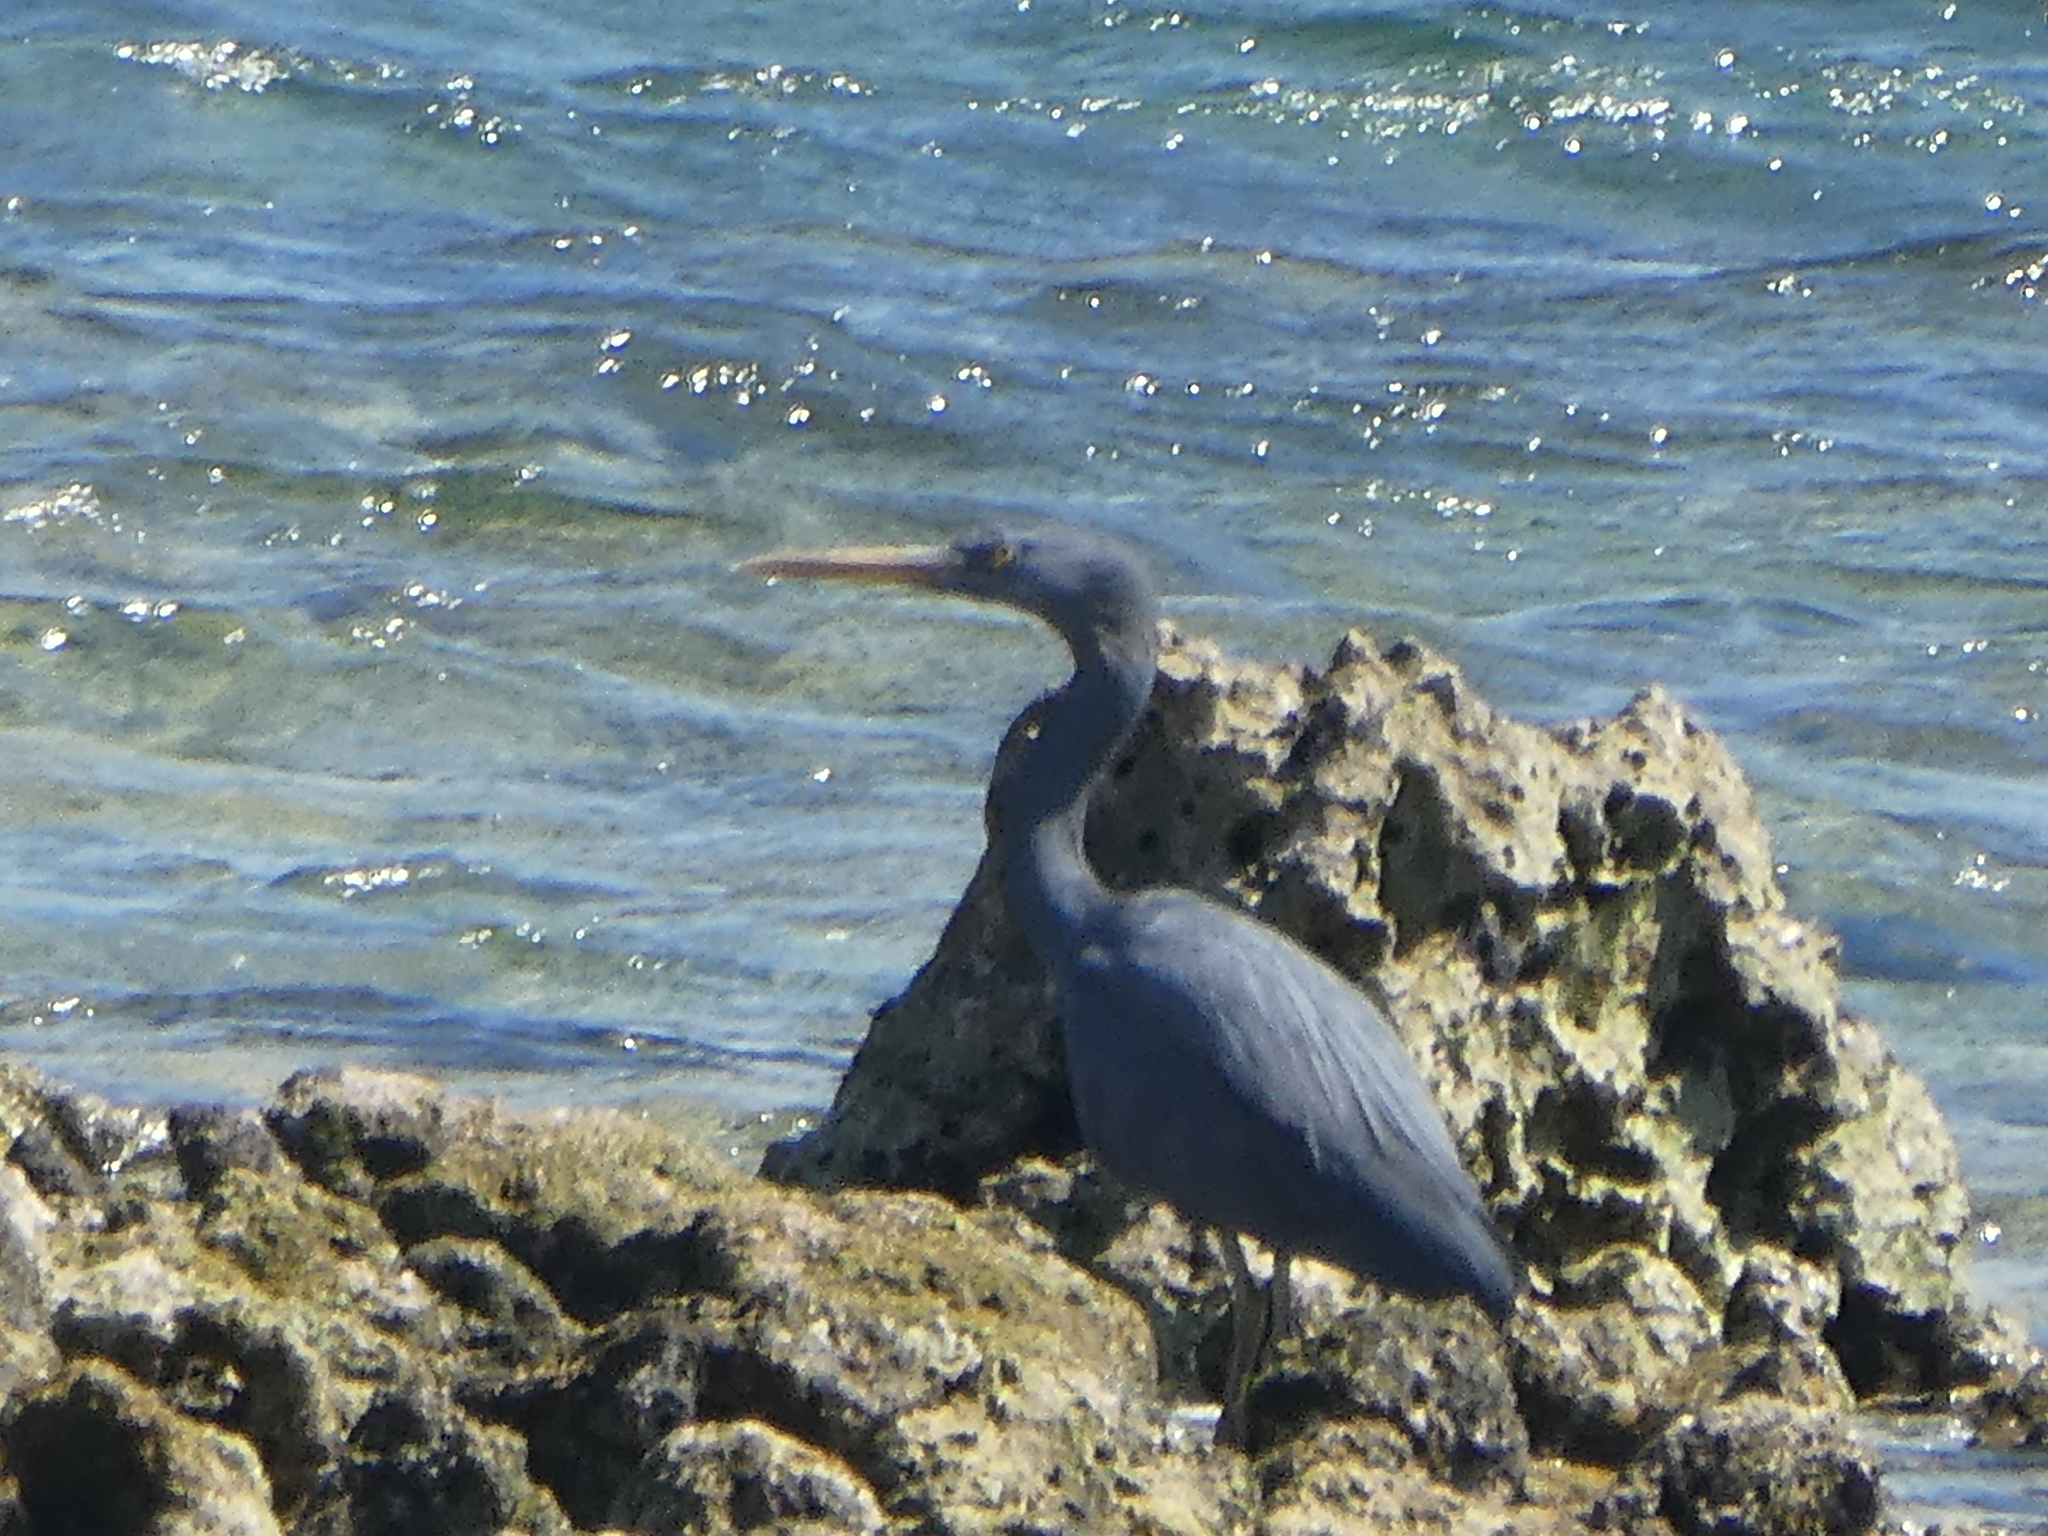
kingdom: Animalia
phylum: Chordata
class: Aves
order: Pelecaniformes
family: Ardeidae
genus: Egretta
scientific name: Egretta sacra
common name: Pacific reef heron
